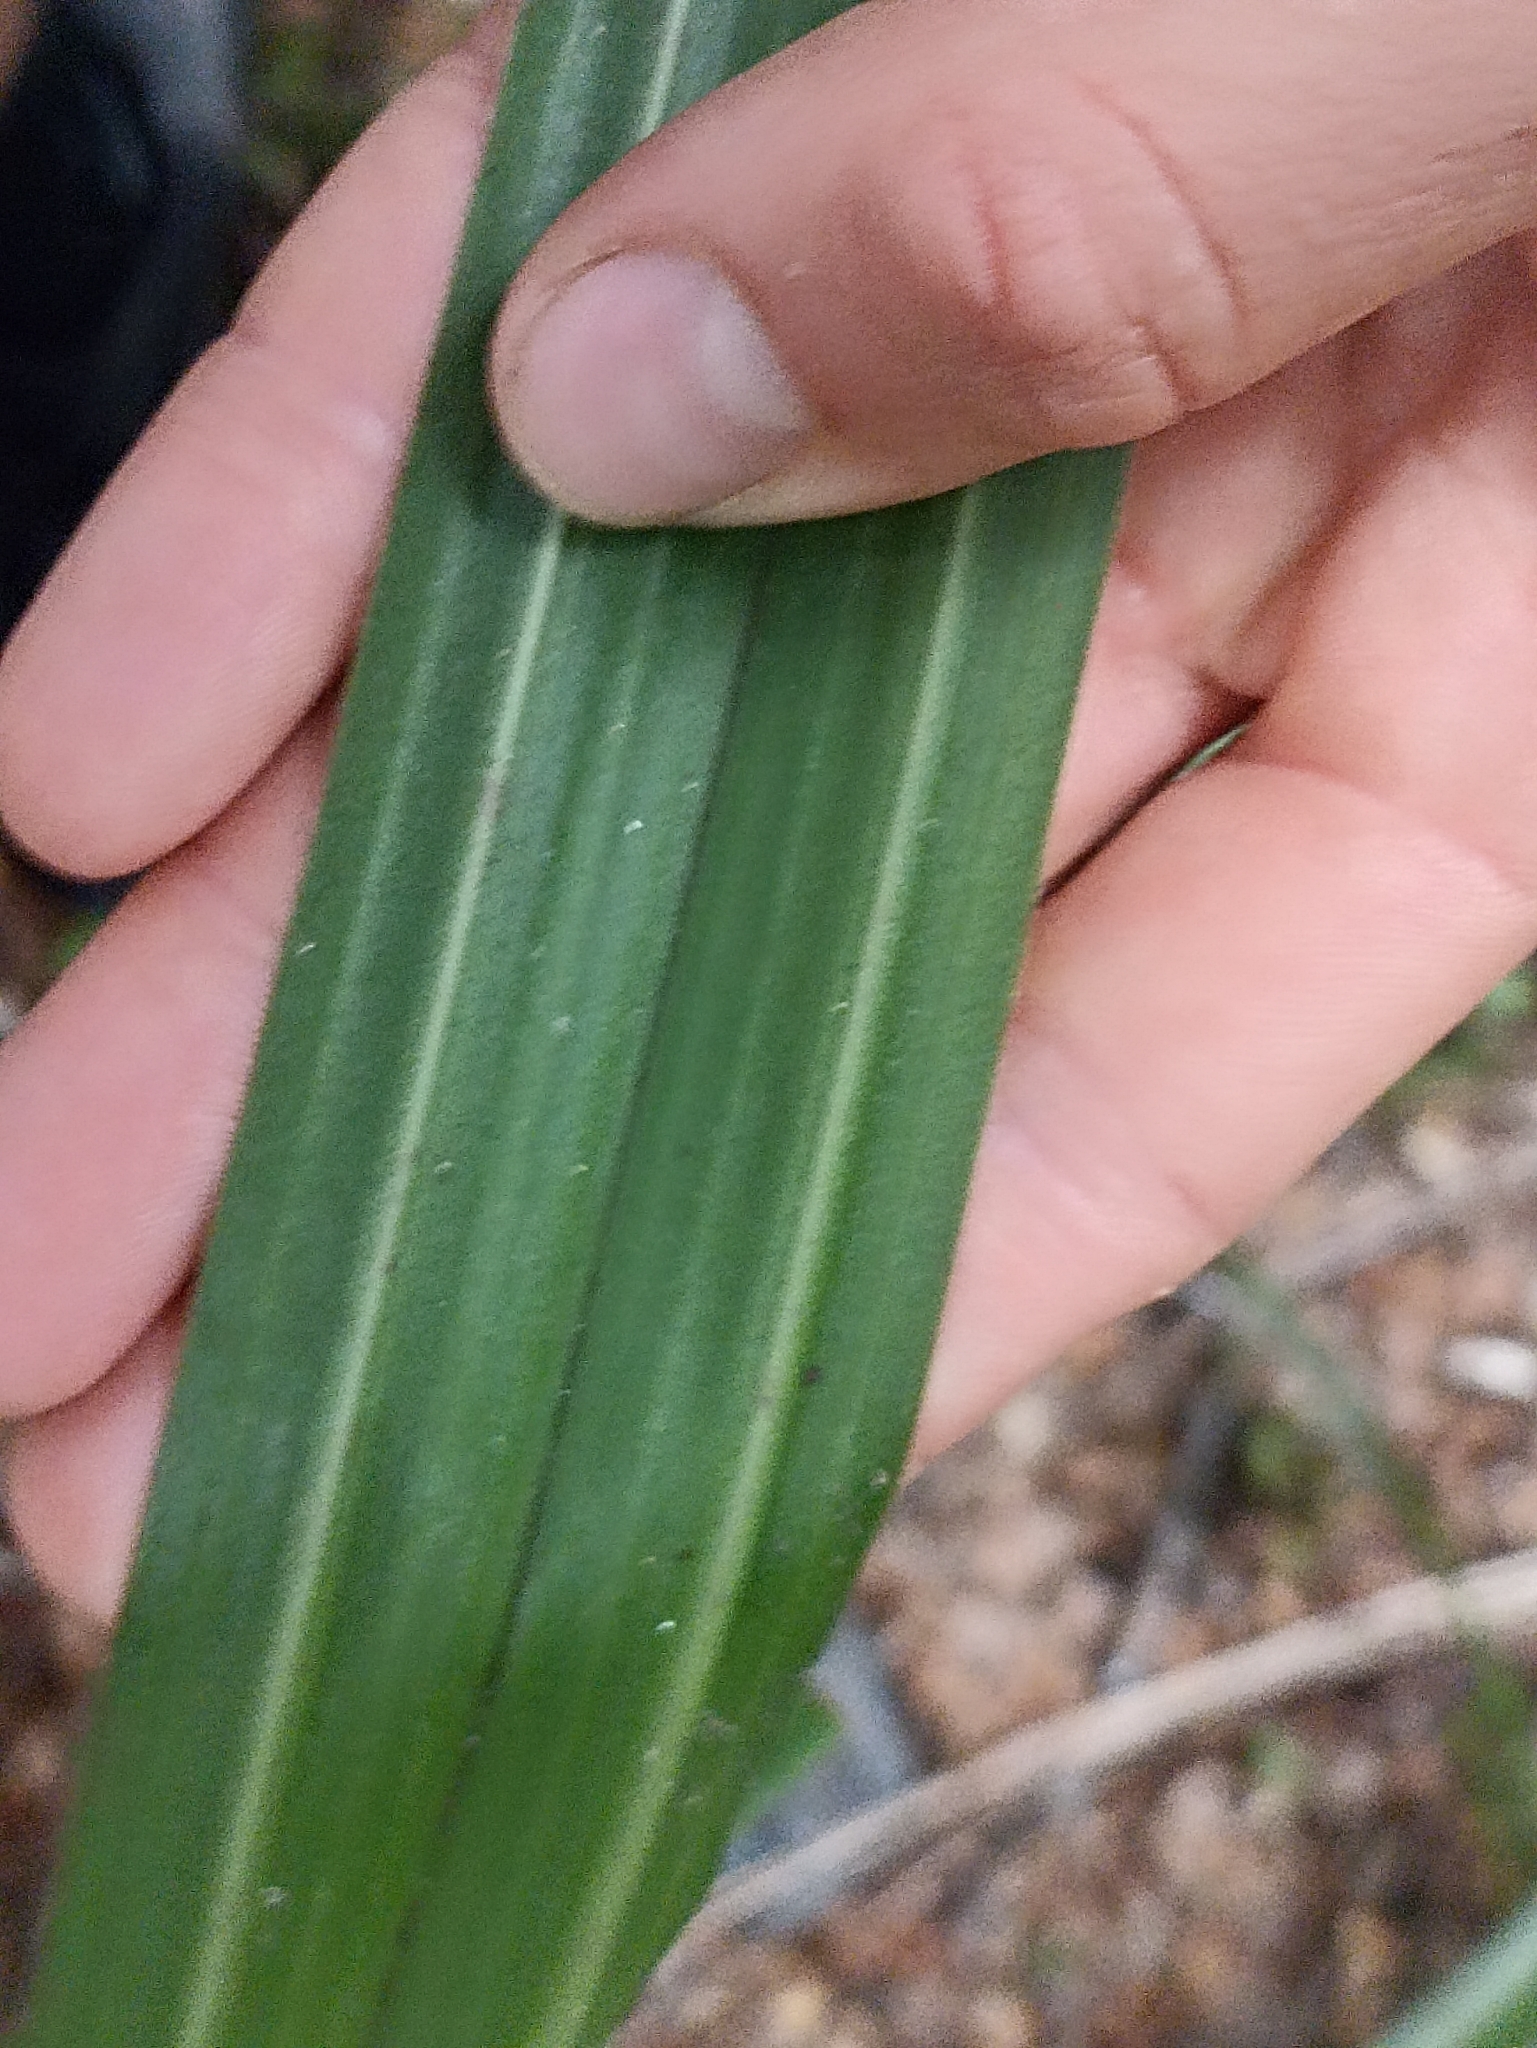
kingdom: Plantae
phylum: Tracheophyta
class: Liliopsida
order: Asparagales
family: Asteliaceae
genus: Astelia
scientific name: Astelia fragrans
